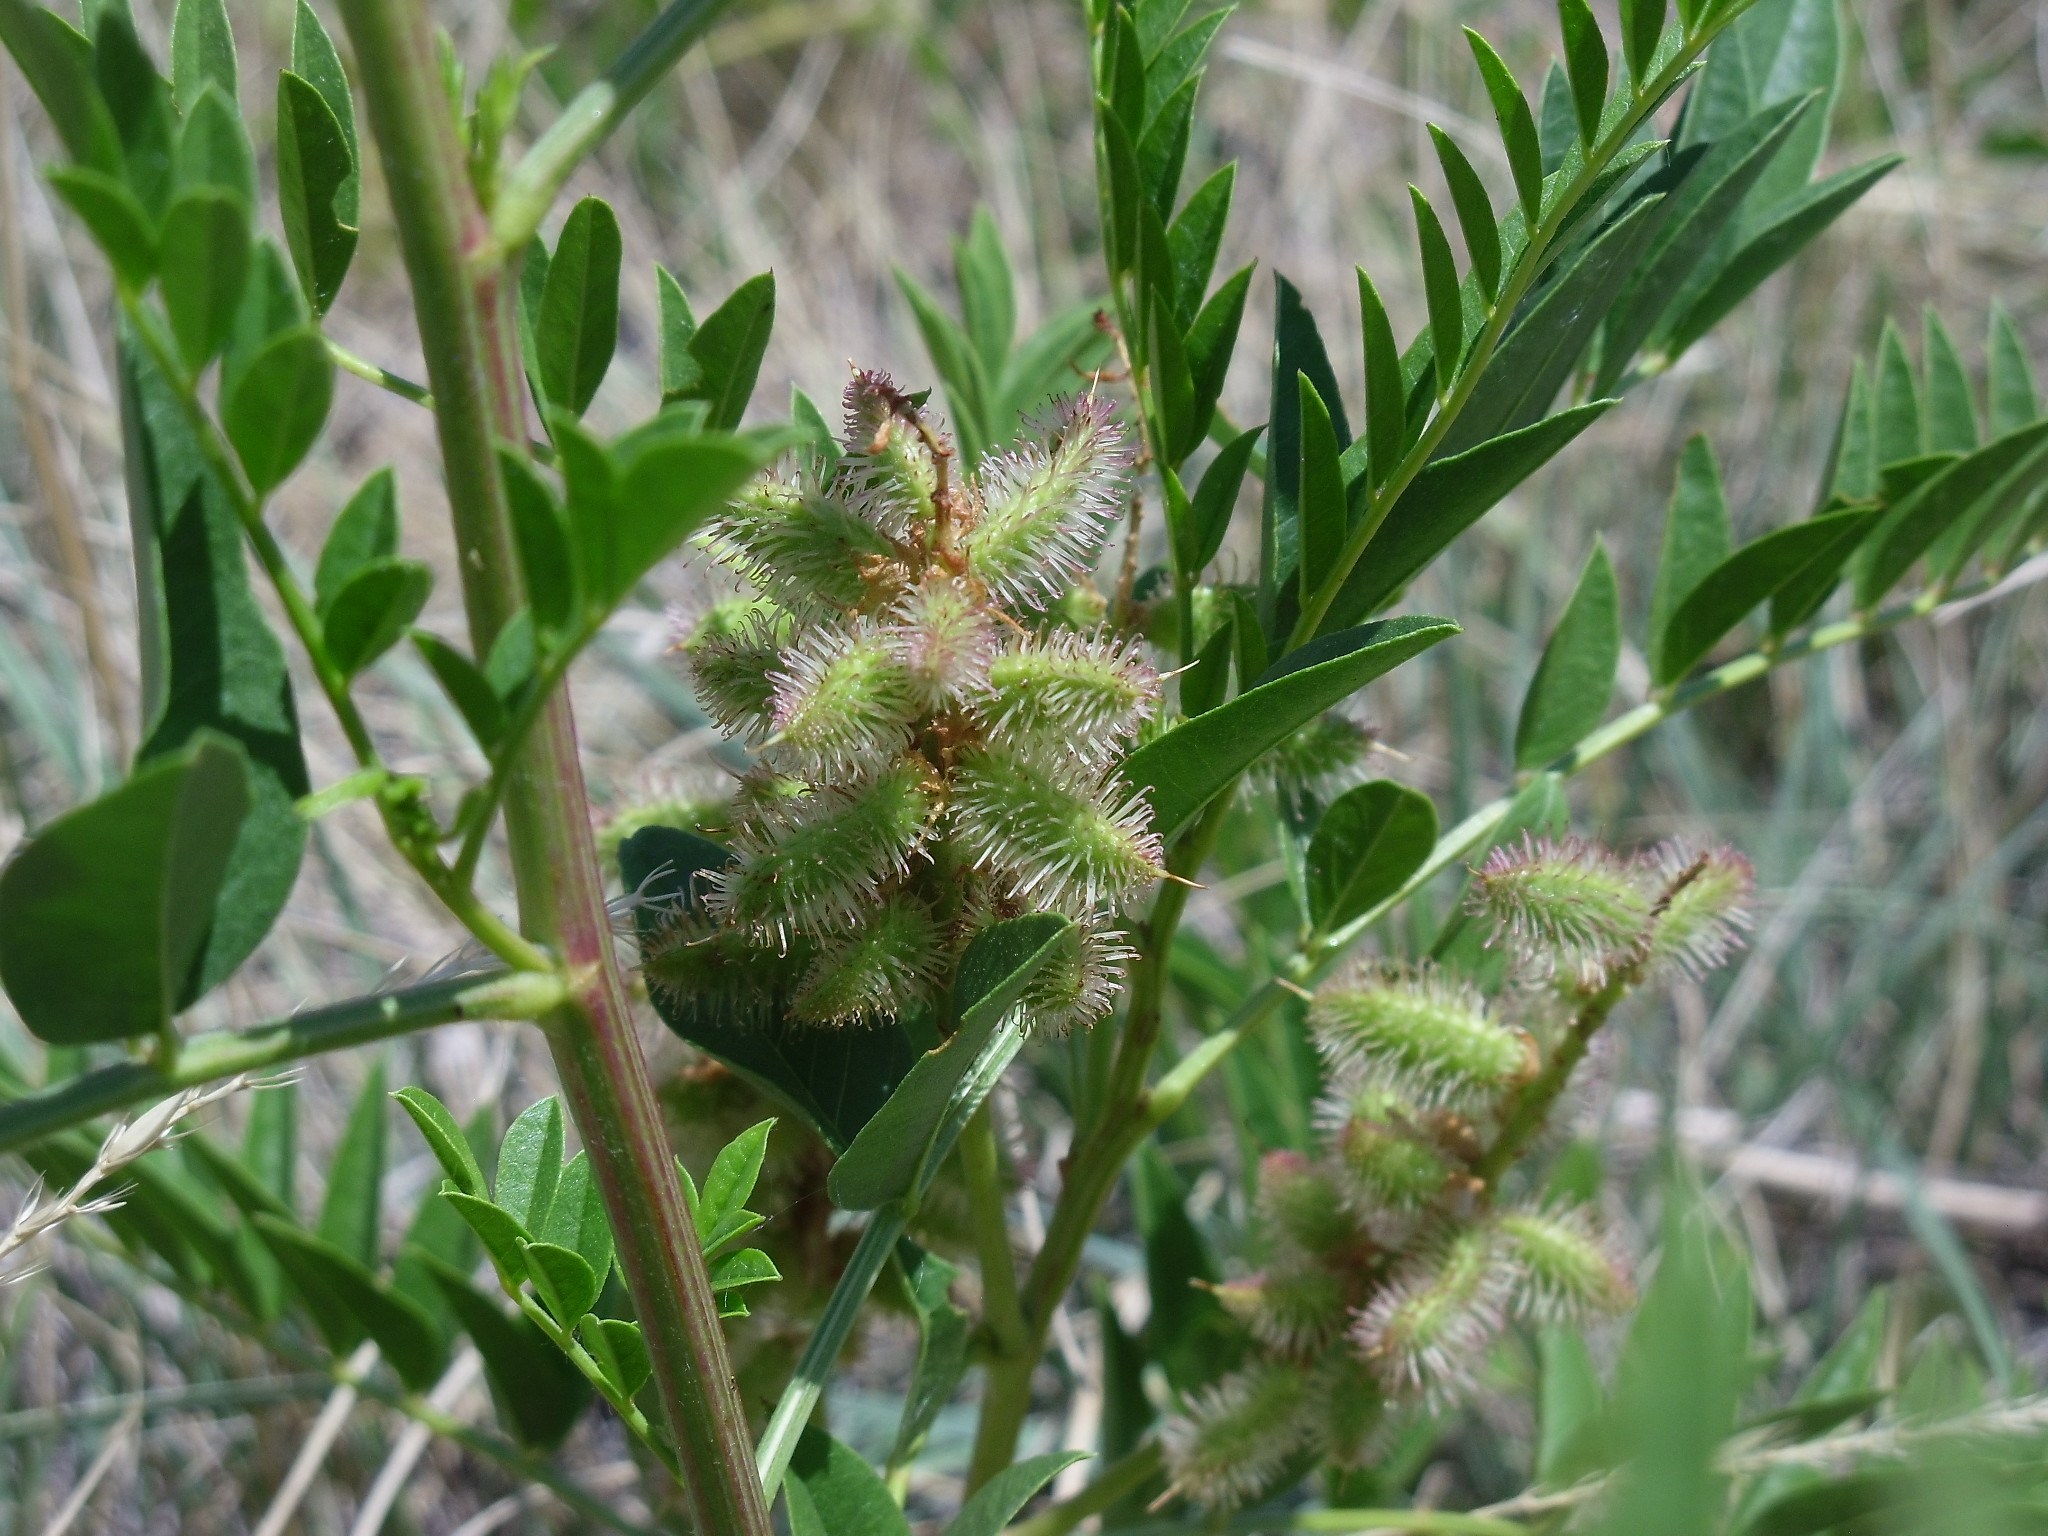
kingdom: Plantae
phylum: Tracheophyta
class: Magnoliopsida
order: Fabales
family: Fabaceae
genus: Glycyrrhiza
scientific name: Glycyrrhiza lepidota
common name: American liquorice
